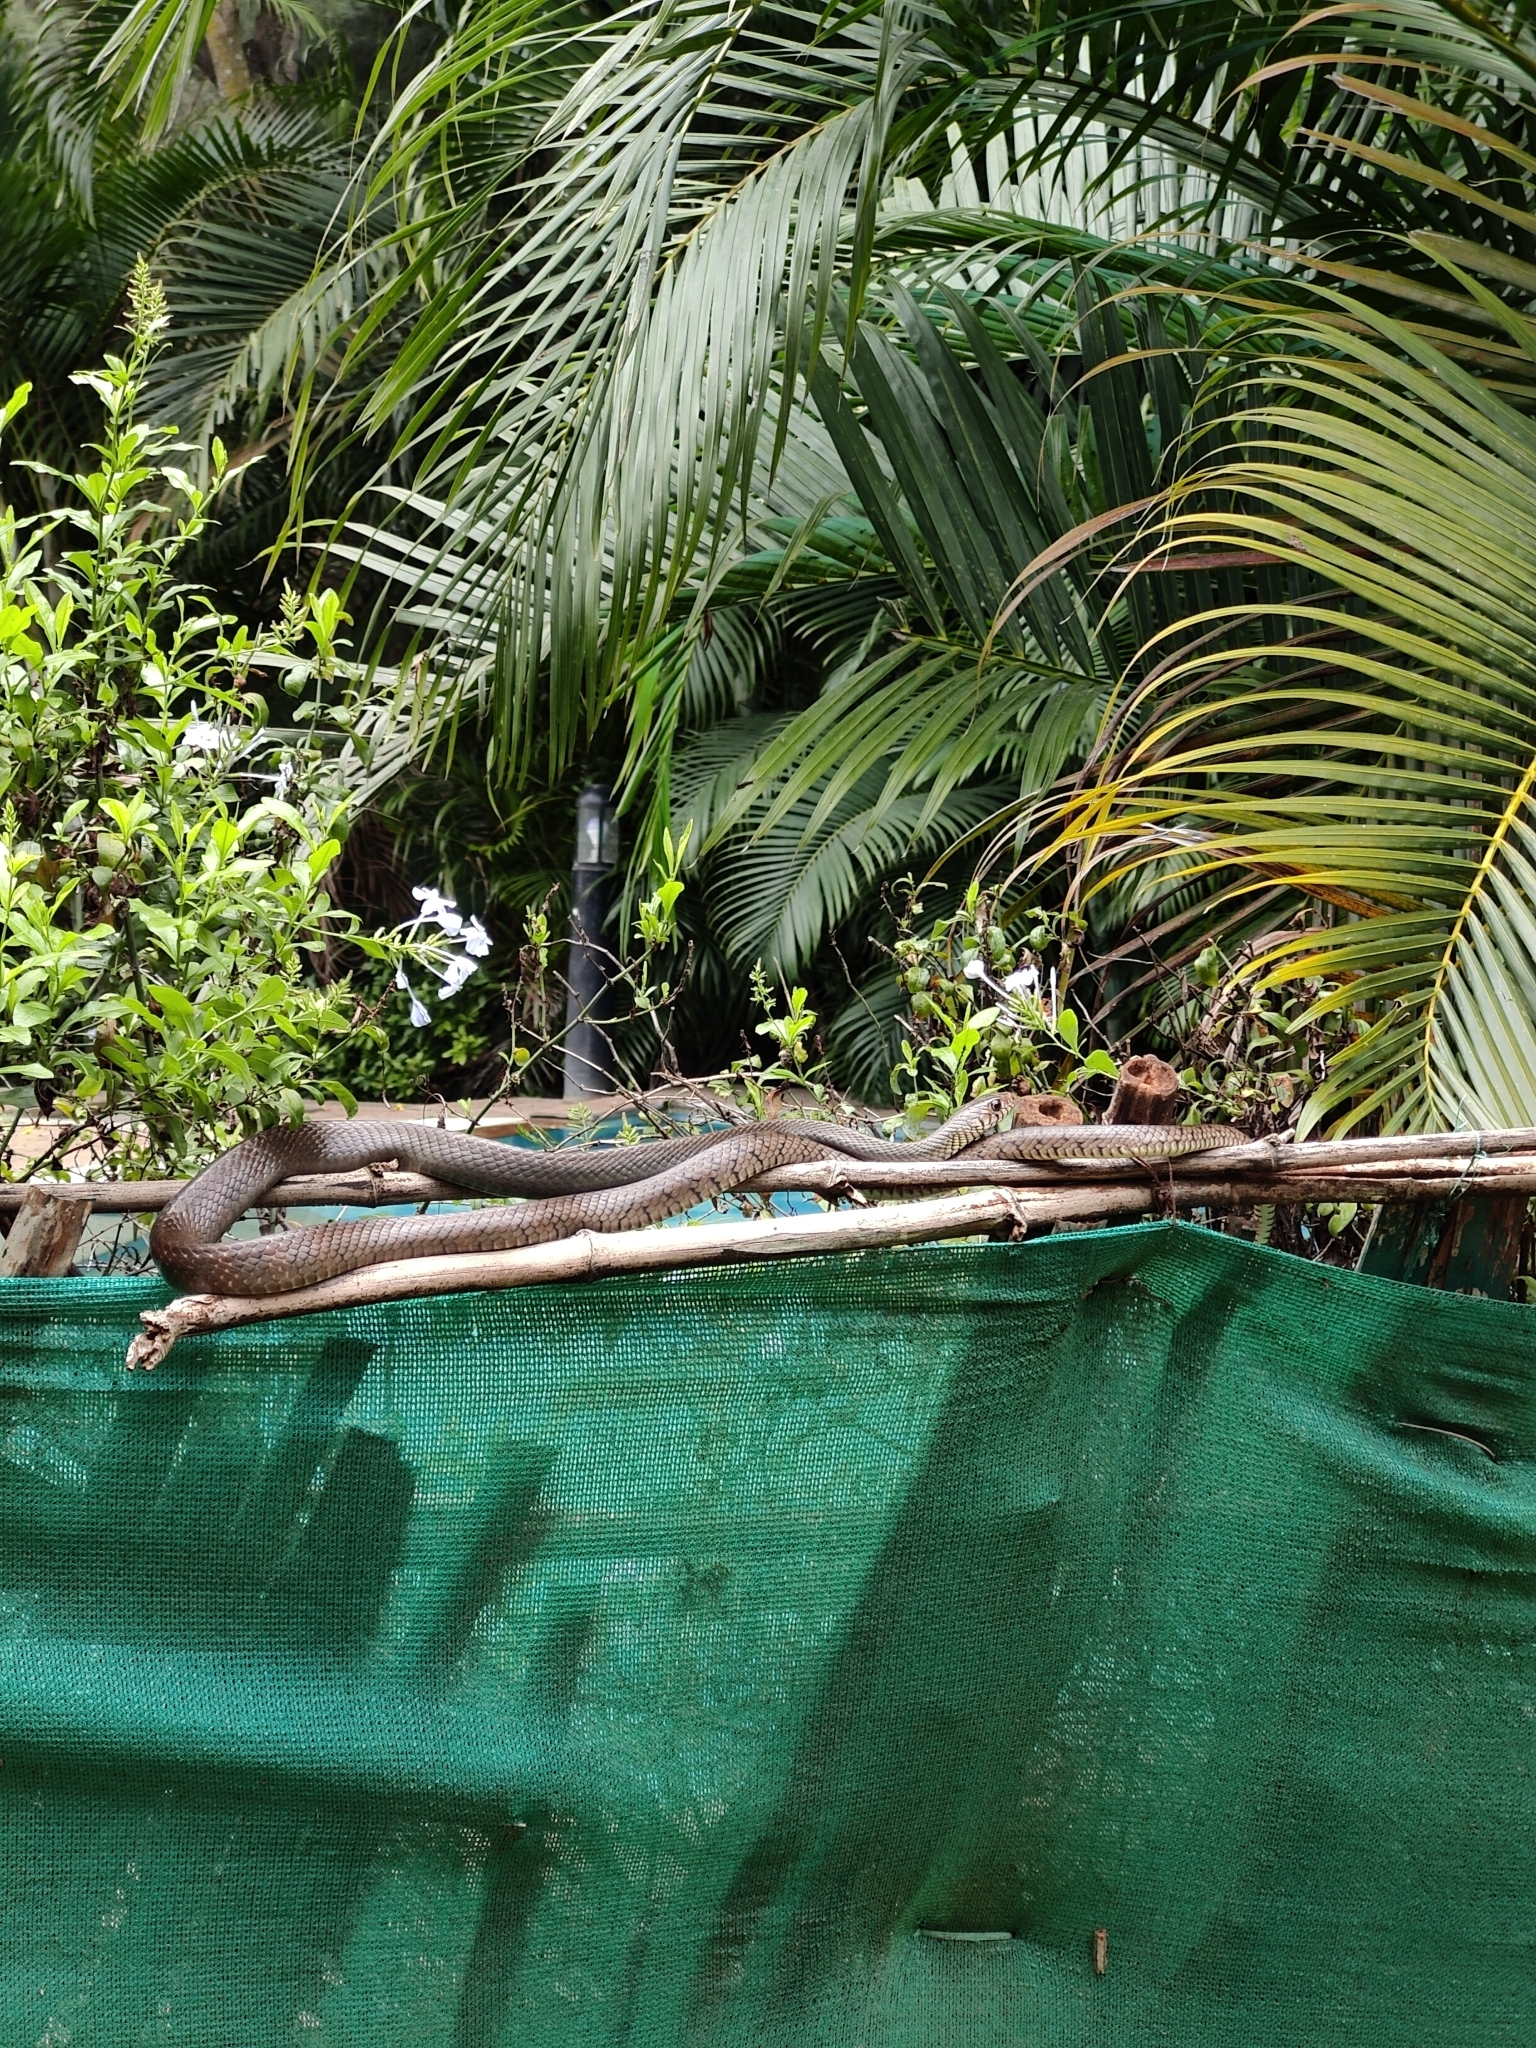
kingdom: Animalia
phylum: Chordata
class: Squamata
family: Colubridae
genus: Ptyas
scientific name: Ptyas mucosa
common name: Oriental ratsnake
